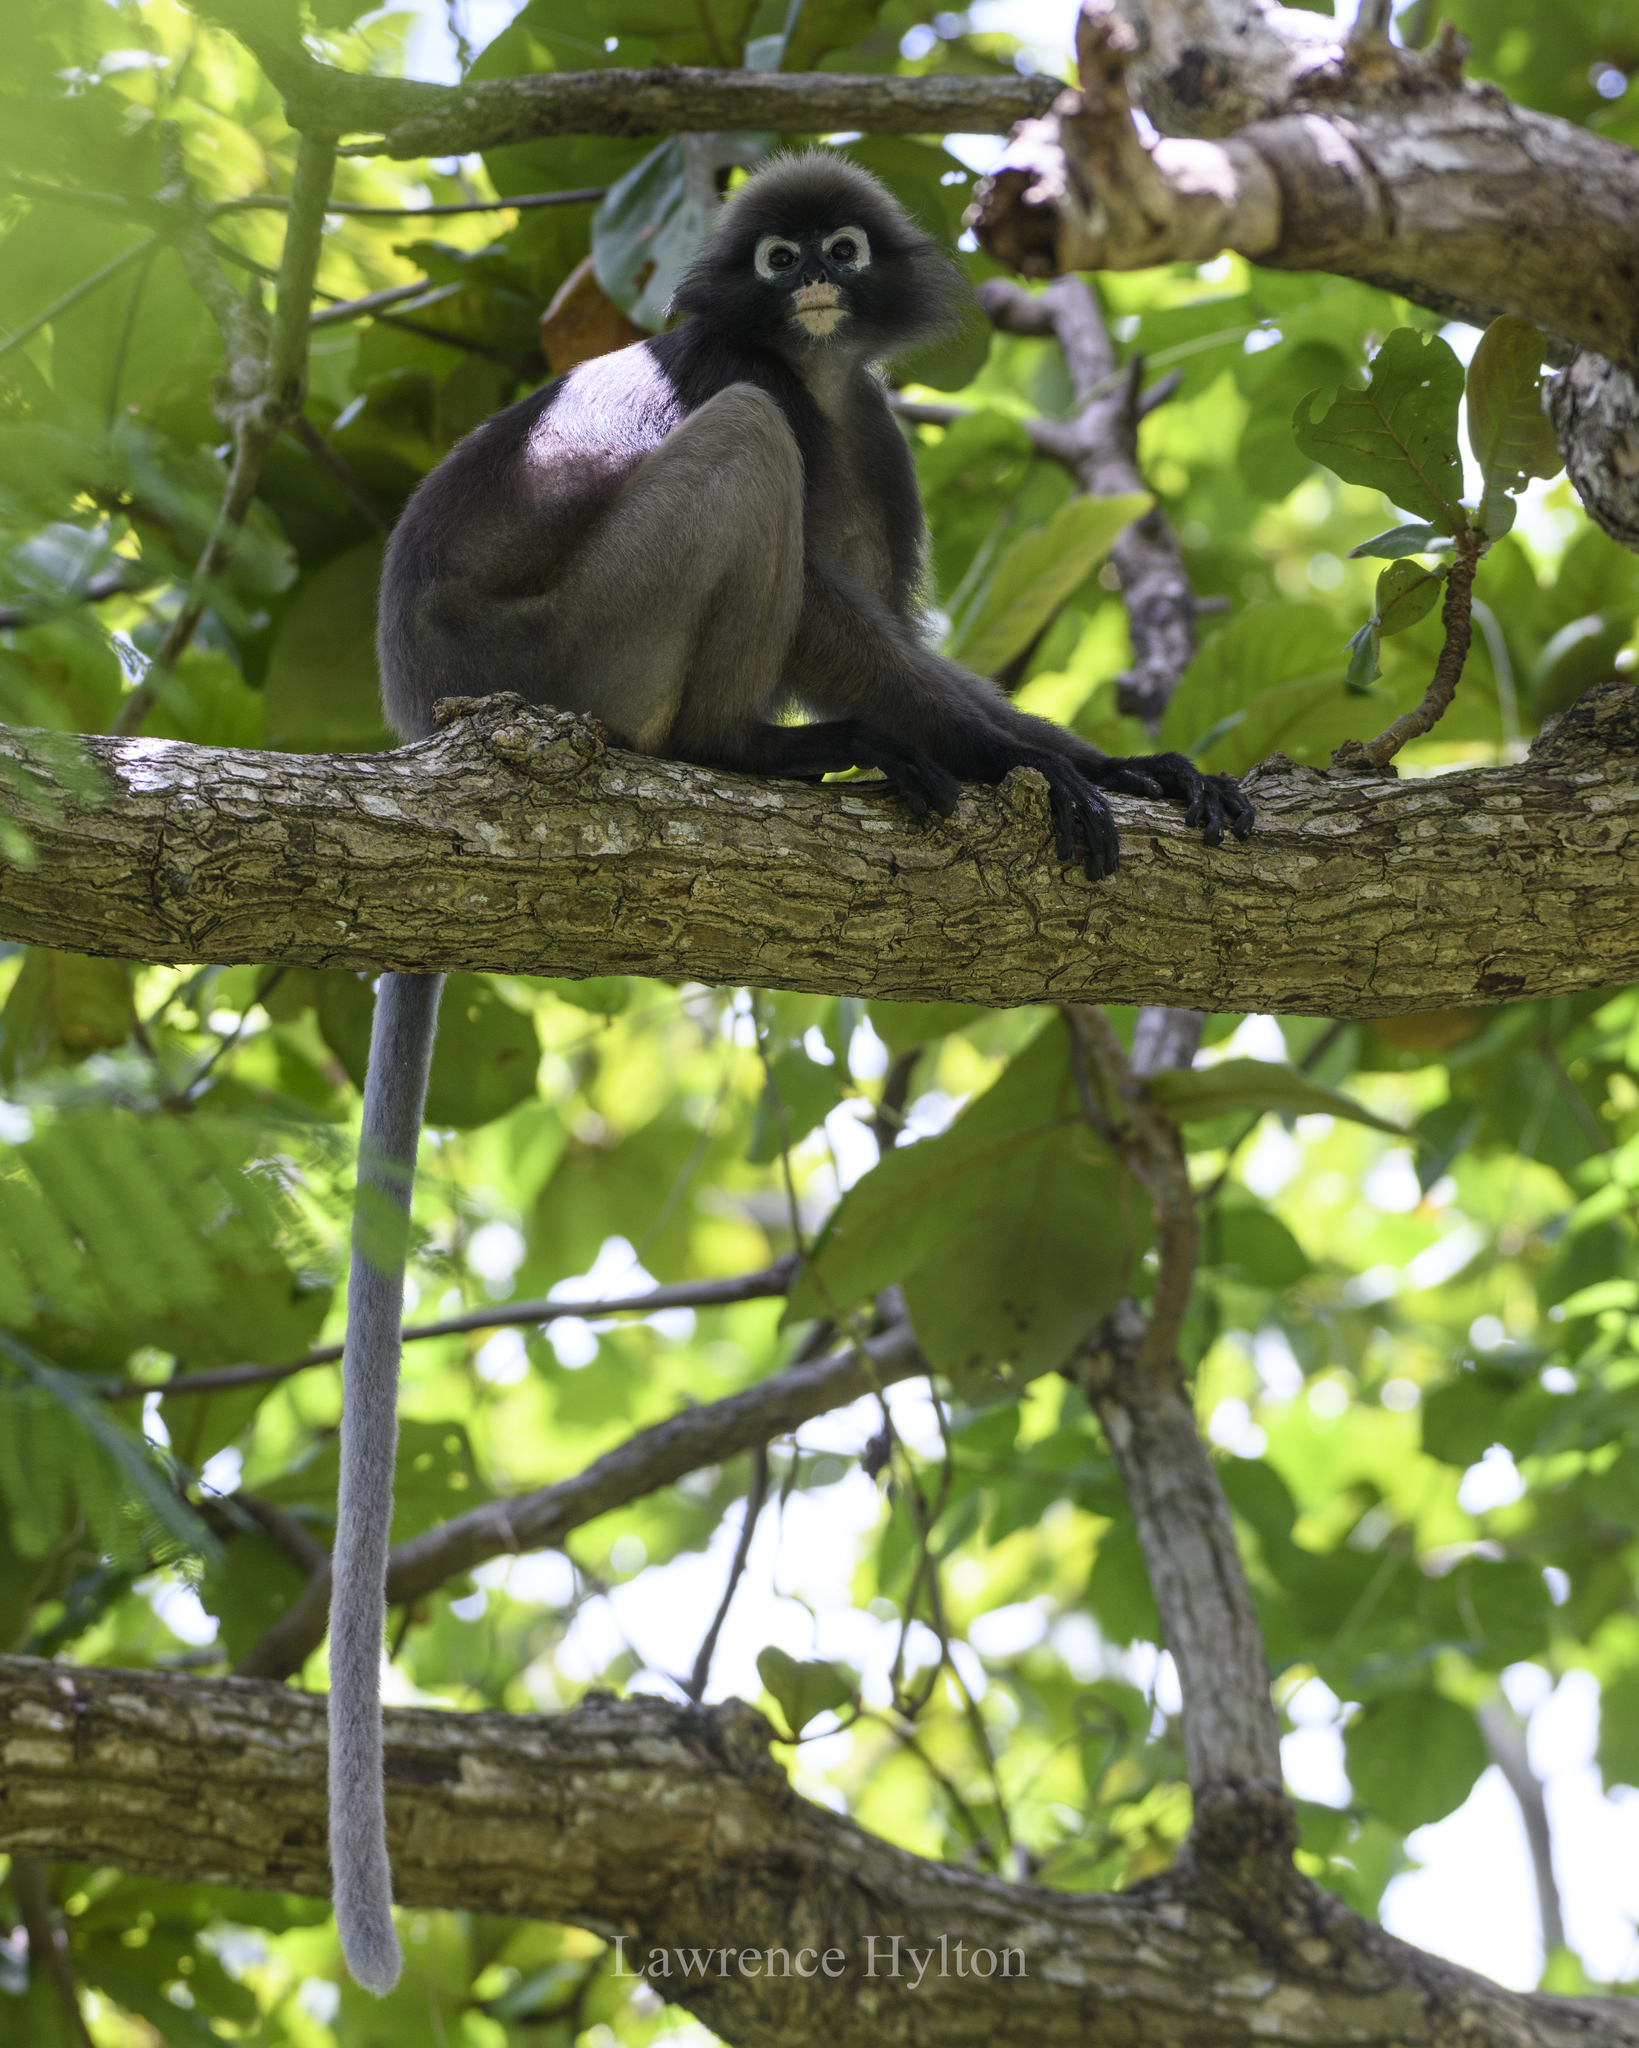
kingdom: Animalia
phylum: Chordata
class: Mammalia
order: Primates
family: Cercopithecidae
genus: Trachypithecus
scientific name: Trachypithecus obscurus
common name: Dusky leaf-monkey
